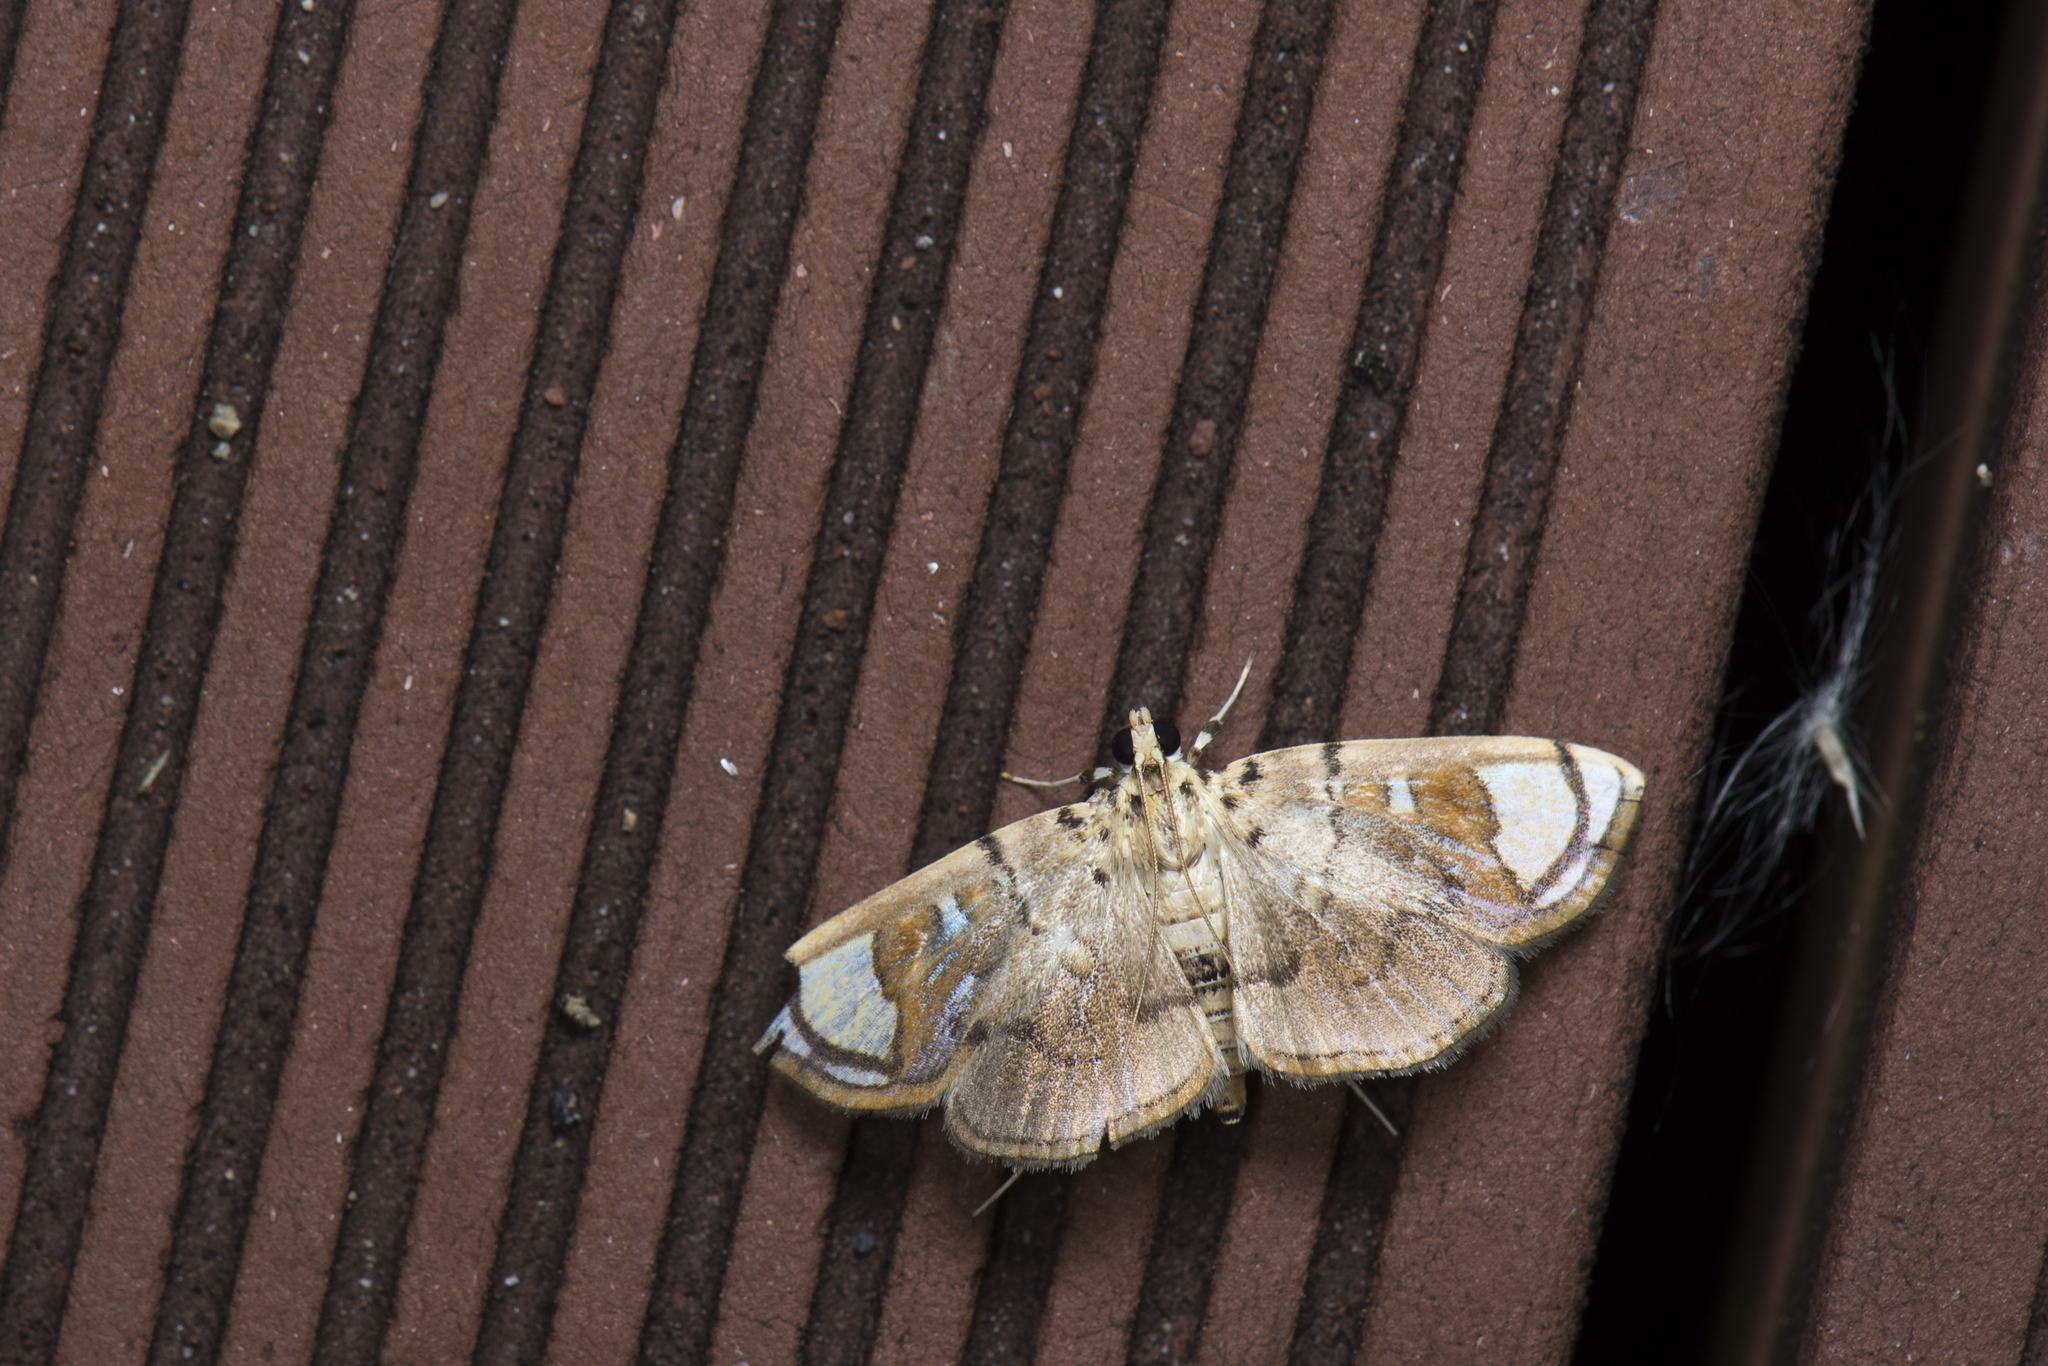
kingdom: Animalia
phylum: Arthropoda
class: Insecta
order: Lepidoptera
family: Crambidae
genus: Pycnarmon
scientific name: Pycnarmon pantherata
